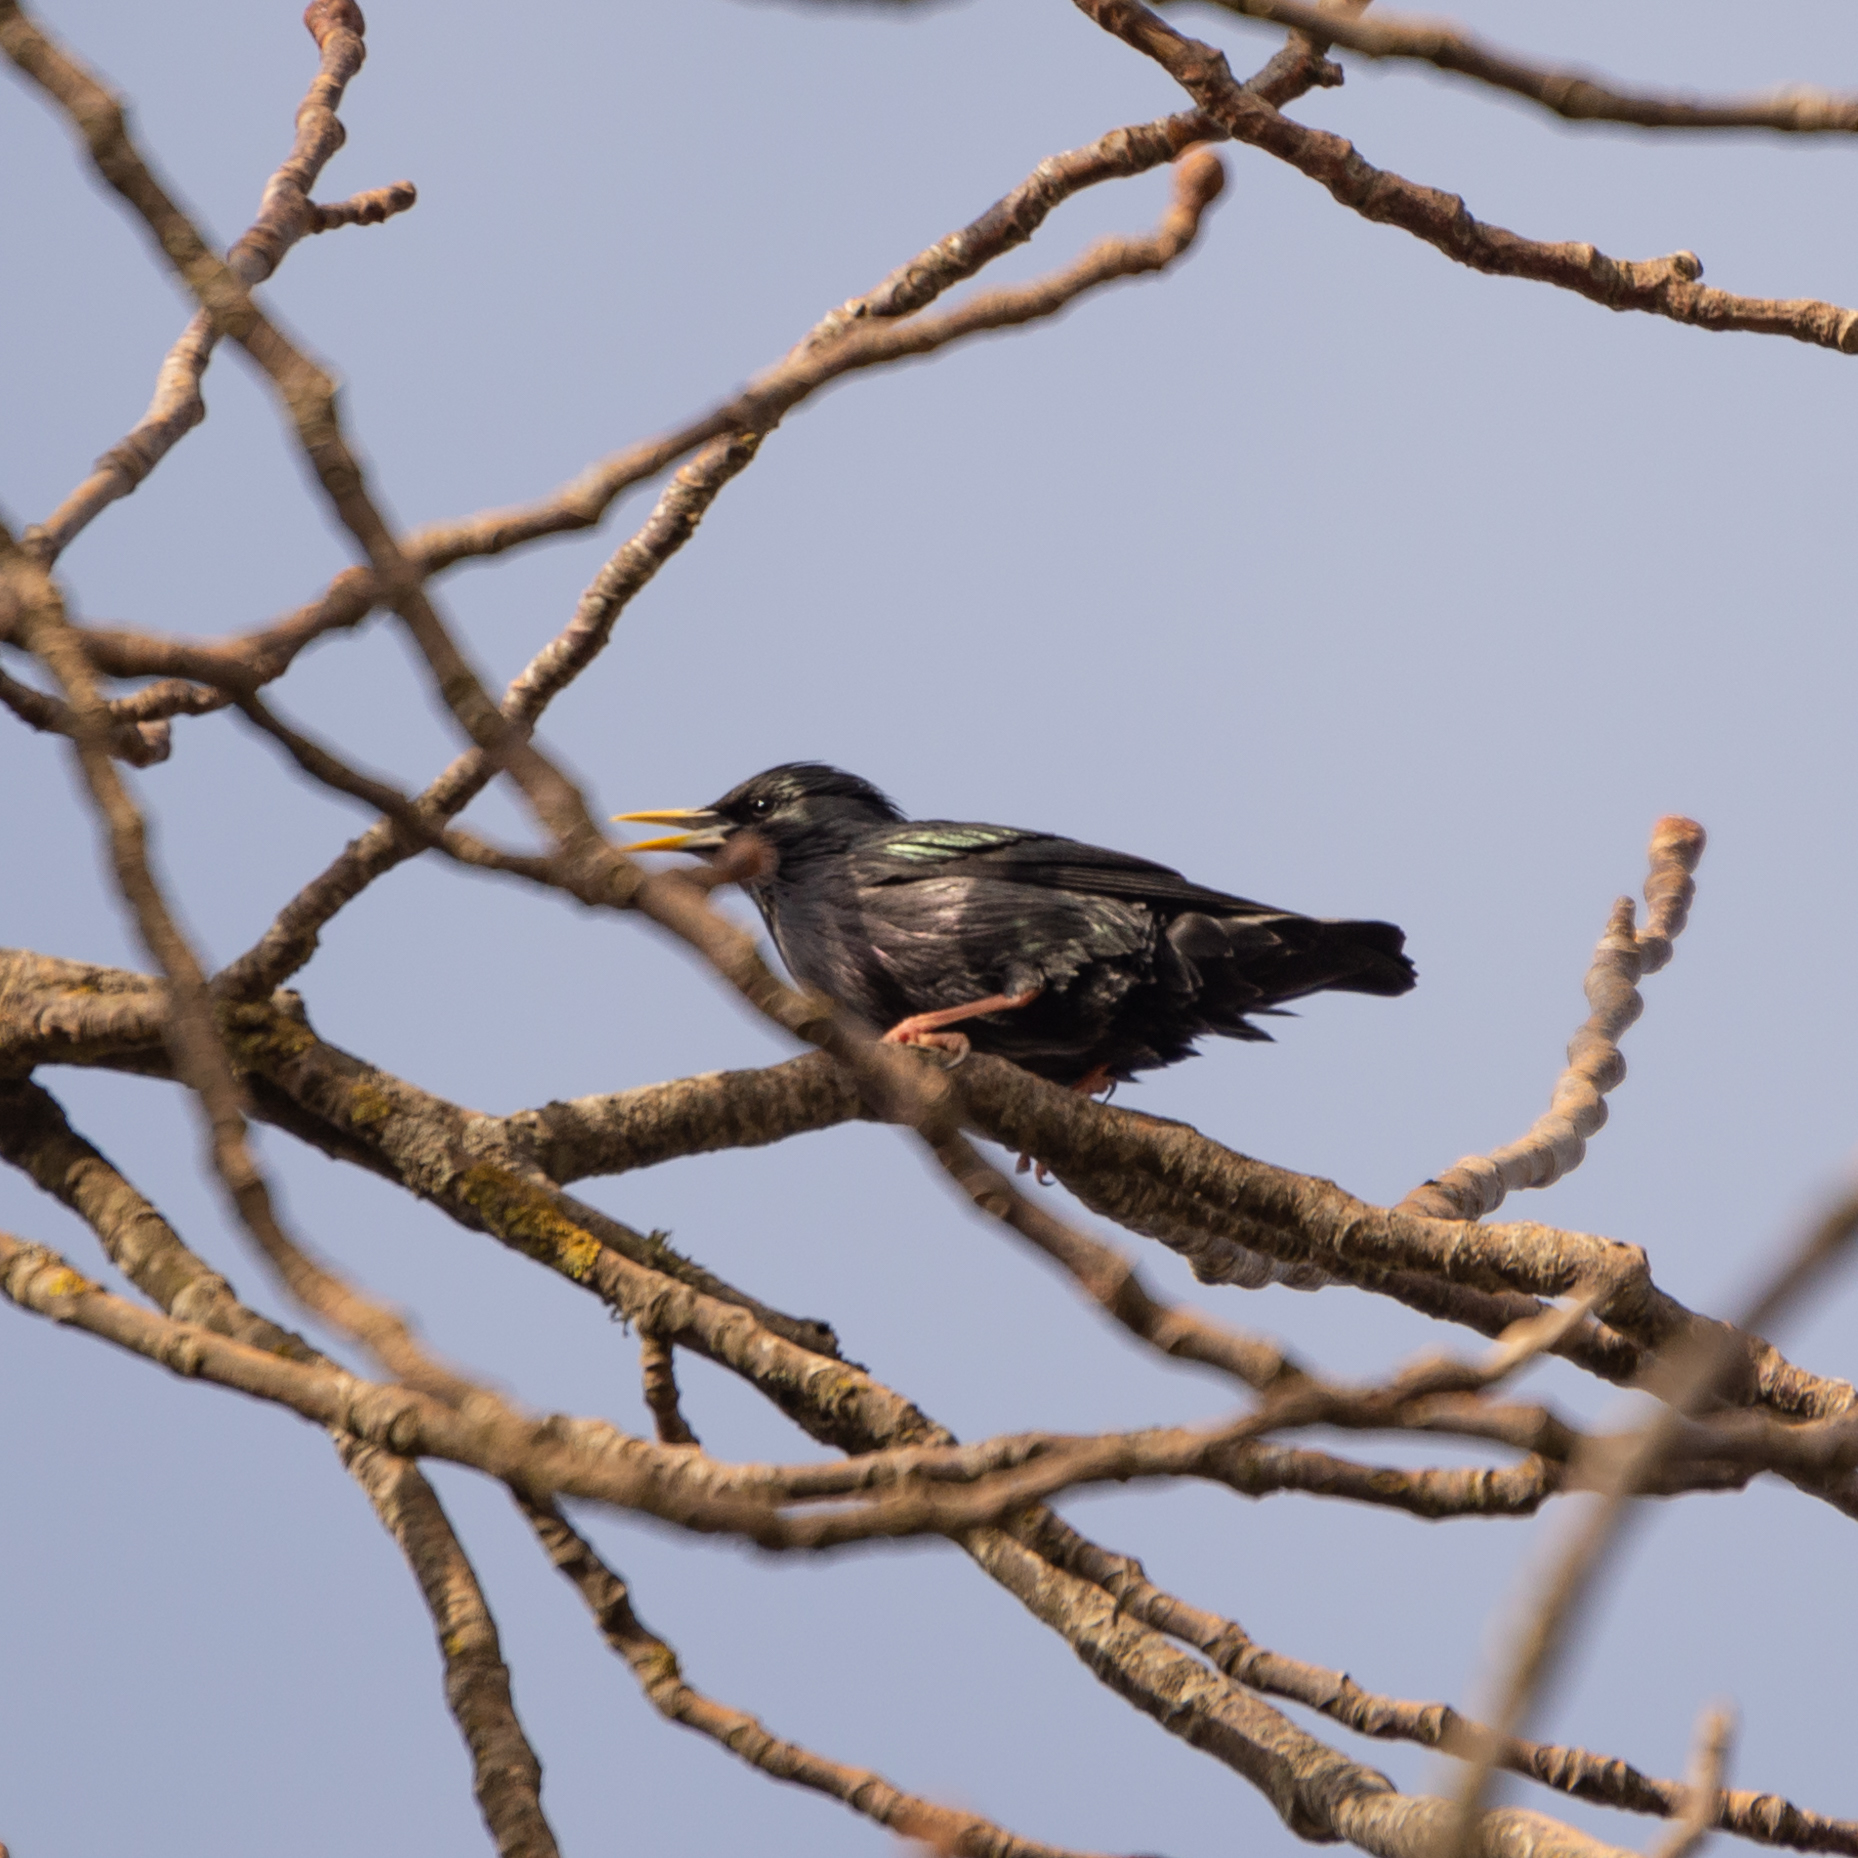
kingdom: Animalia
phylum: Chordata
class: Aves
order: Passeriformes
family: Sturnidae
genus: Sturnus
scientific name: Sturnus unicolor
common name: Spotless starling
